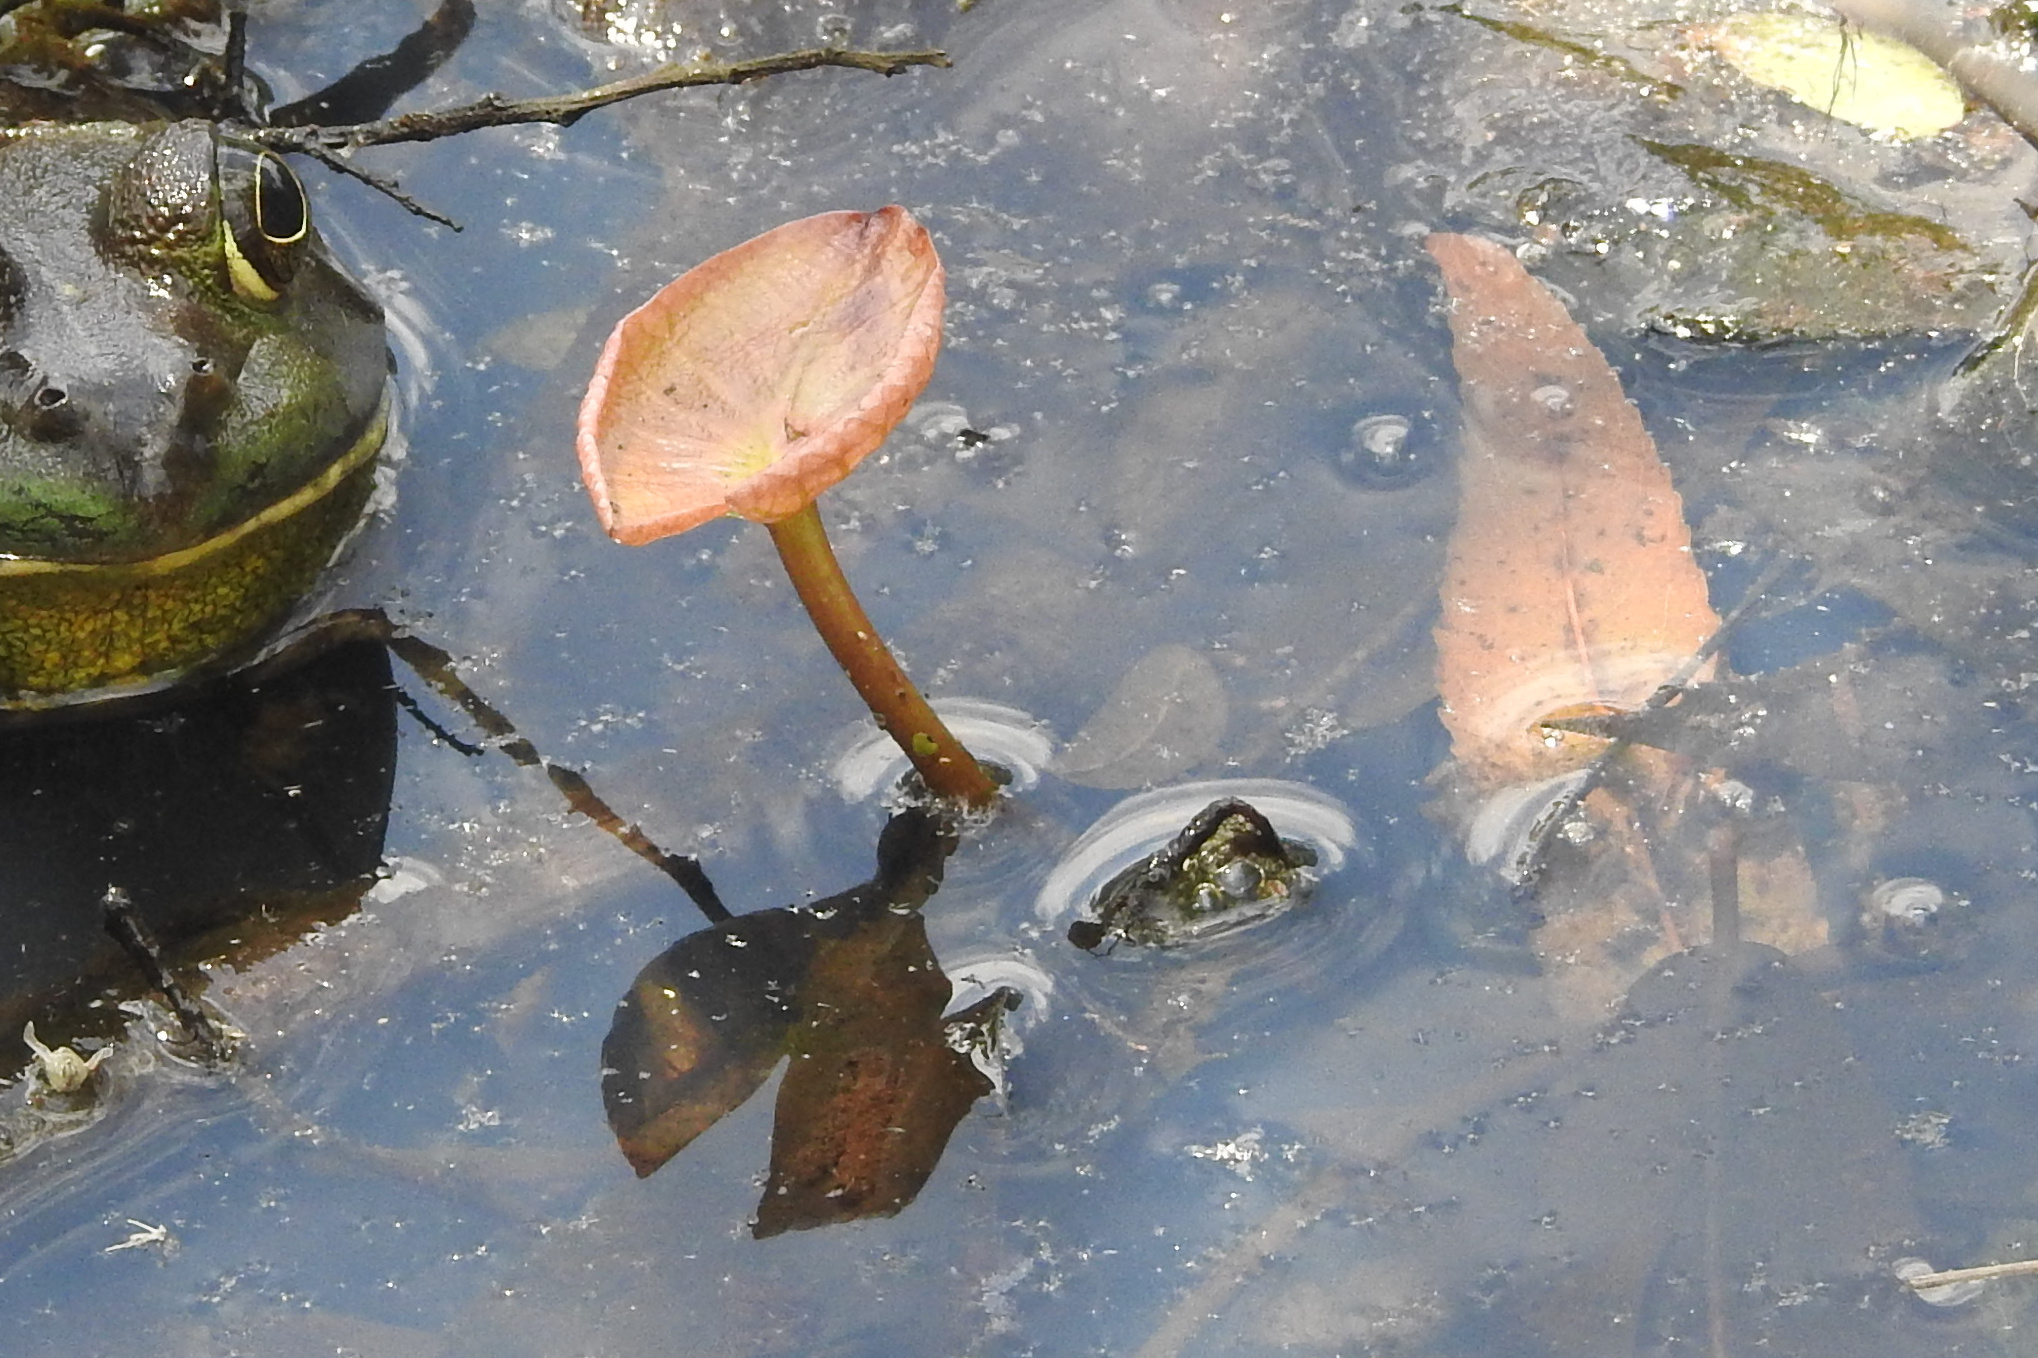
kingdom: Plantae
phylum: Tracheophyta
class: Magnoliopsida
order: Nymphaeales
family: Cabombaceae
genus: Brasenia
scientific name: Brasenia schreberi
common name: Water-shield
